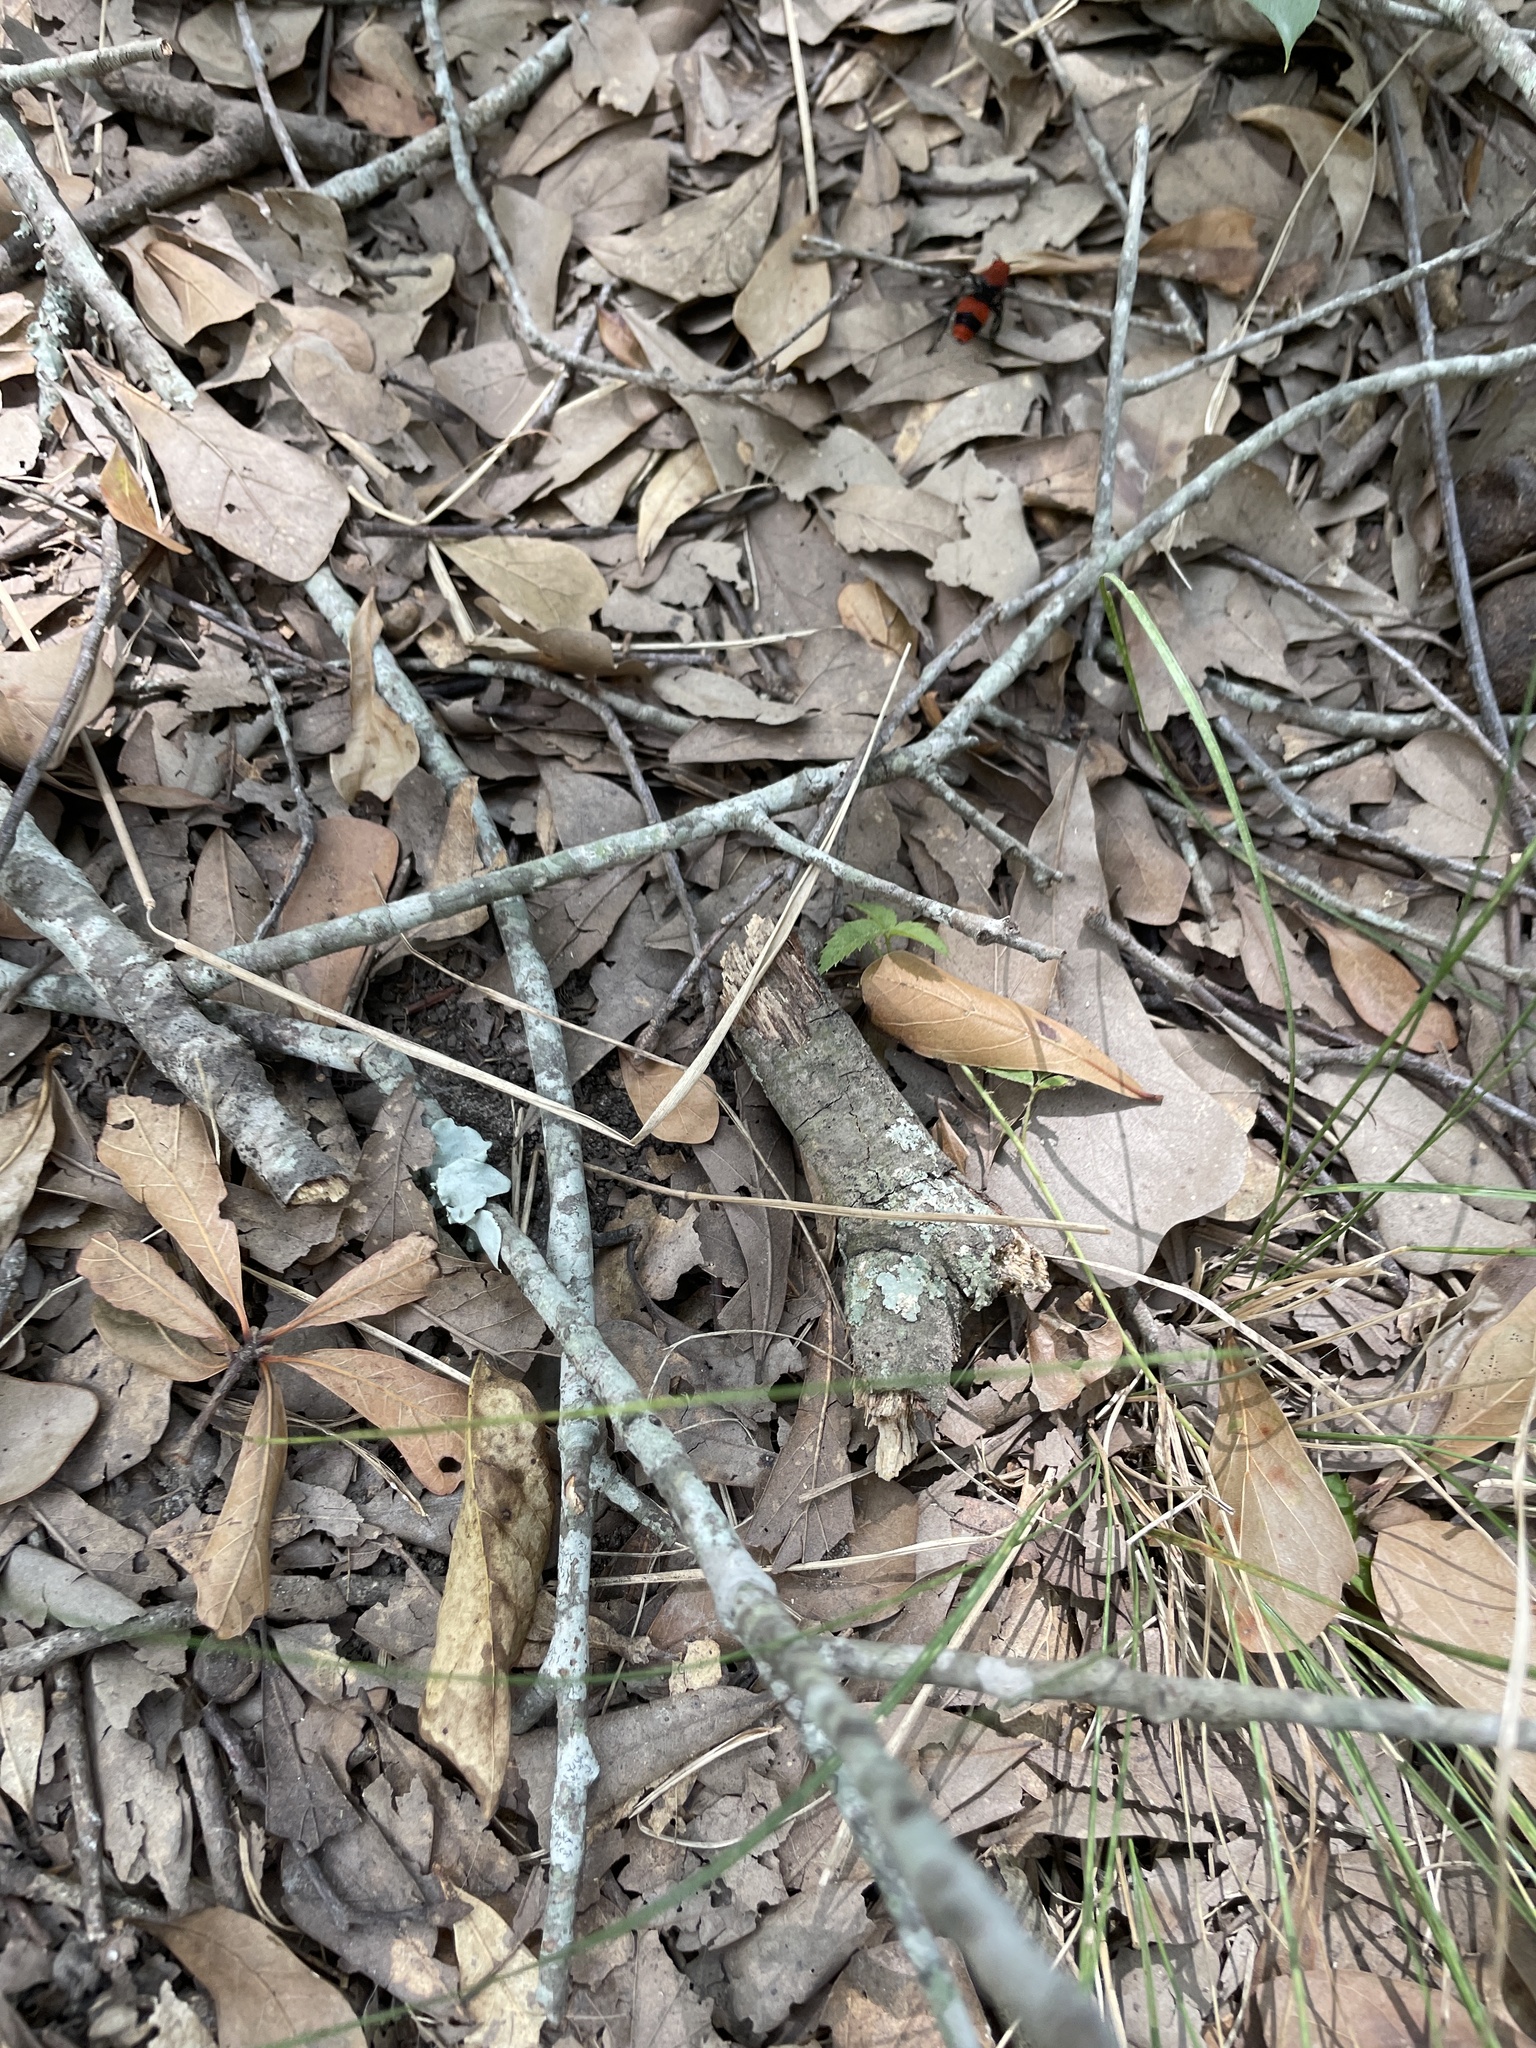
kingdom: Animalia
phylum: Arthropoda
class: Insecta
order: Hymenoptera
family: Mutillidae
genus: Dasymutilla
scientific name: Dasymutilla occidentalis
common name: Common eastern velvet ant
